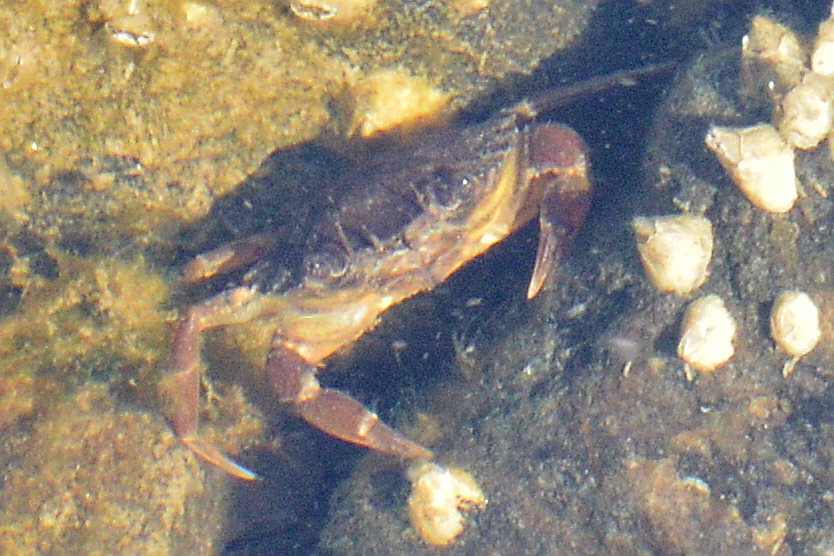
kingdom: Animalia
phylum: Arthropoda
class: Malacostraca
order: Decapoda
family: Carcinidae
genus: Carcinus
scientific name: Carcinus maenas
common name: European green crab
